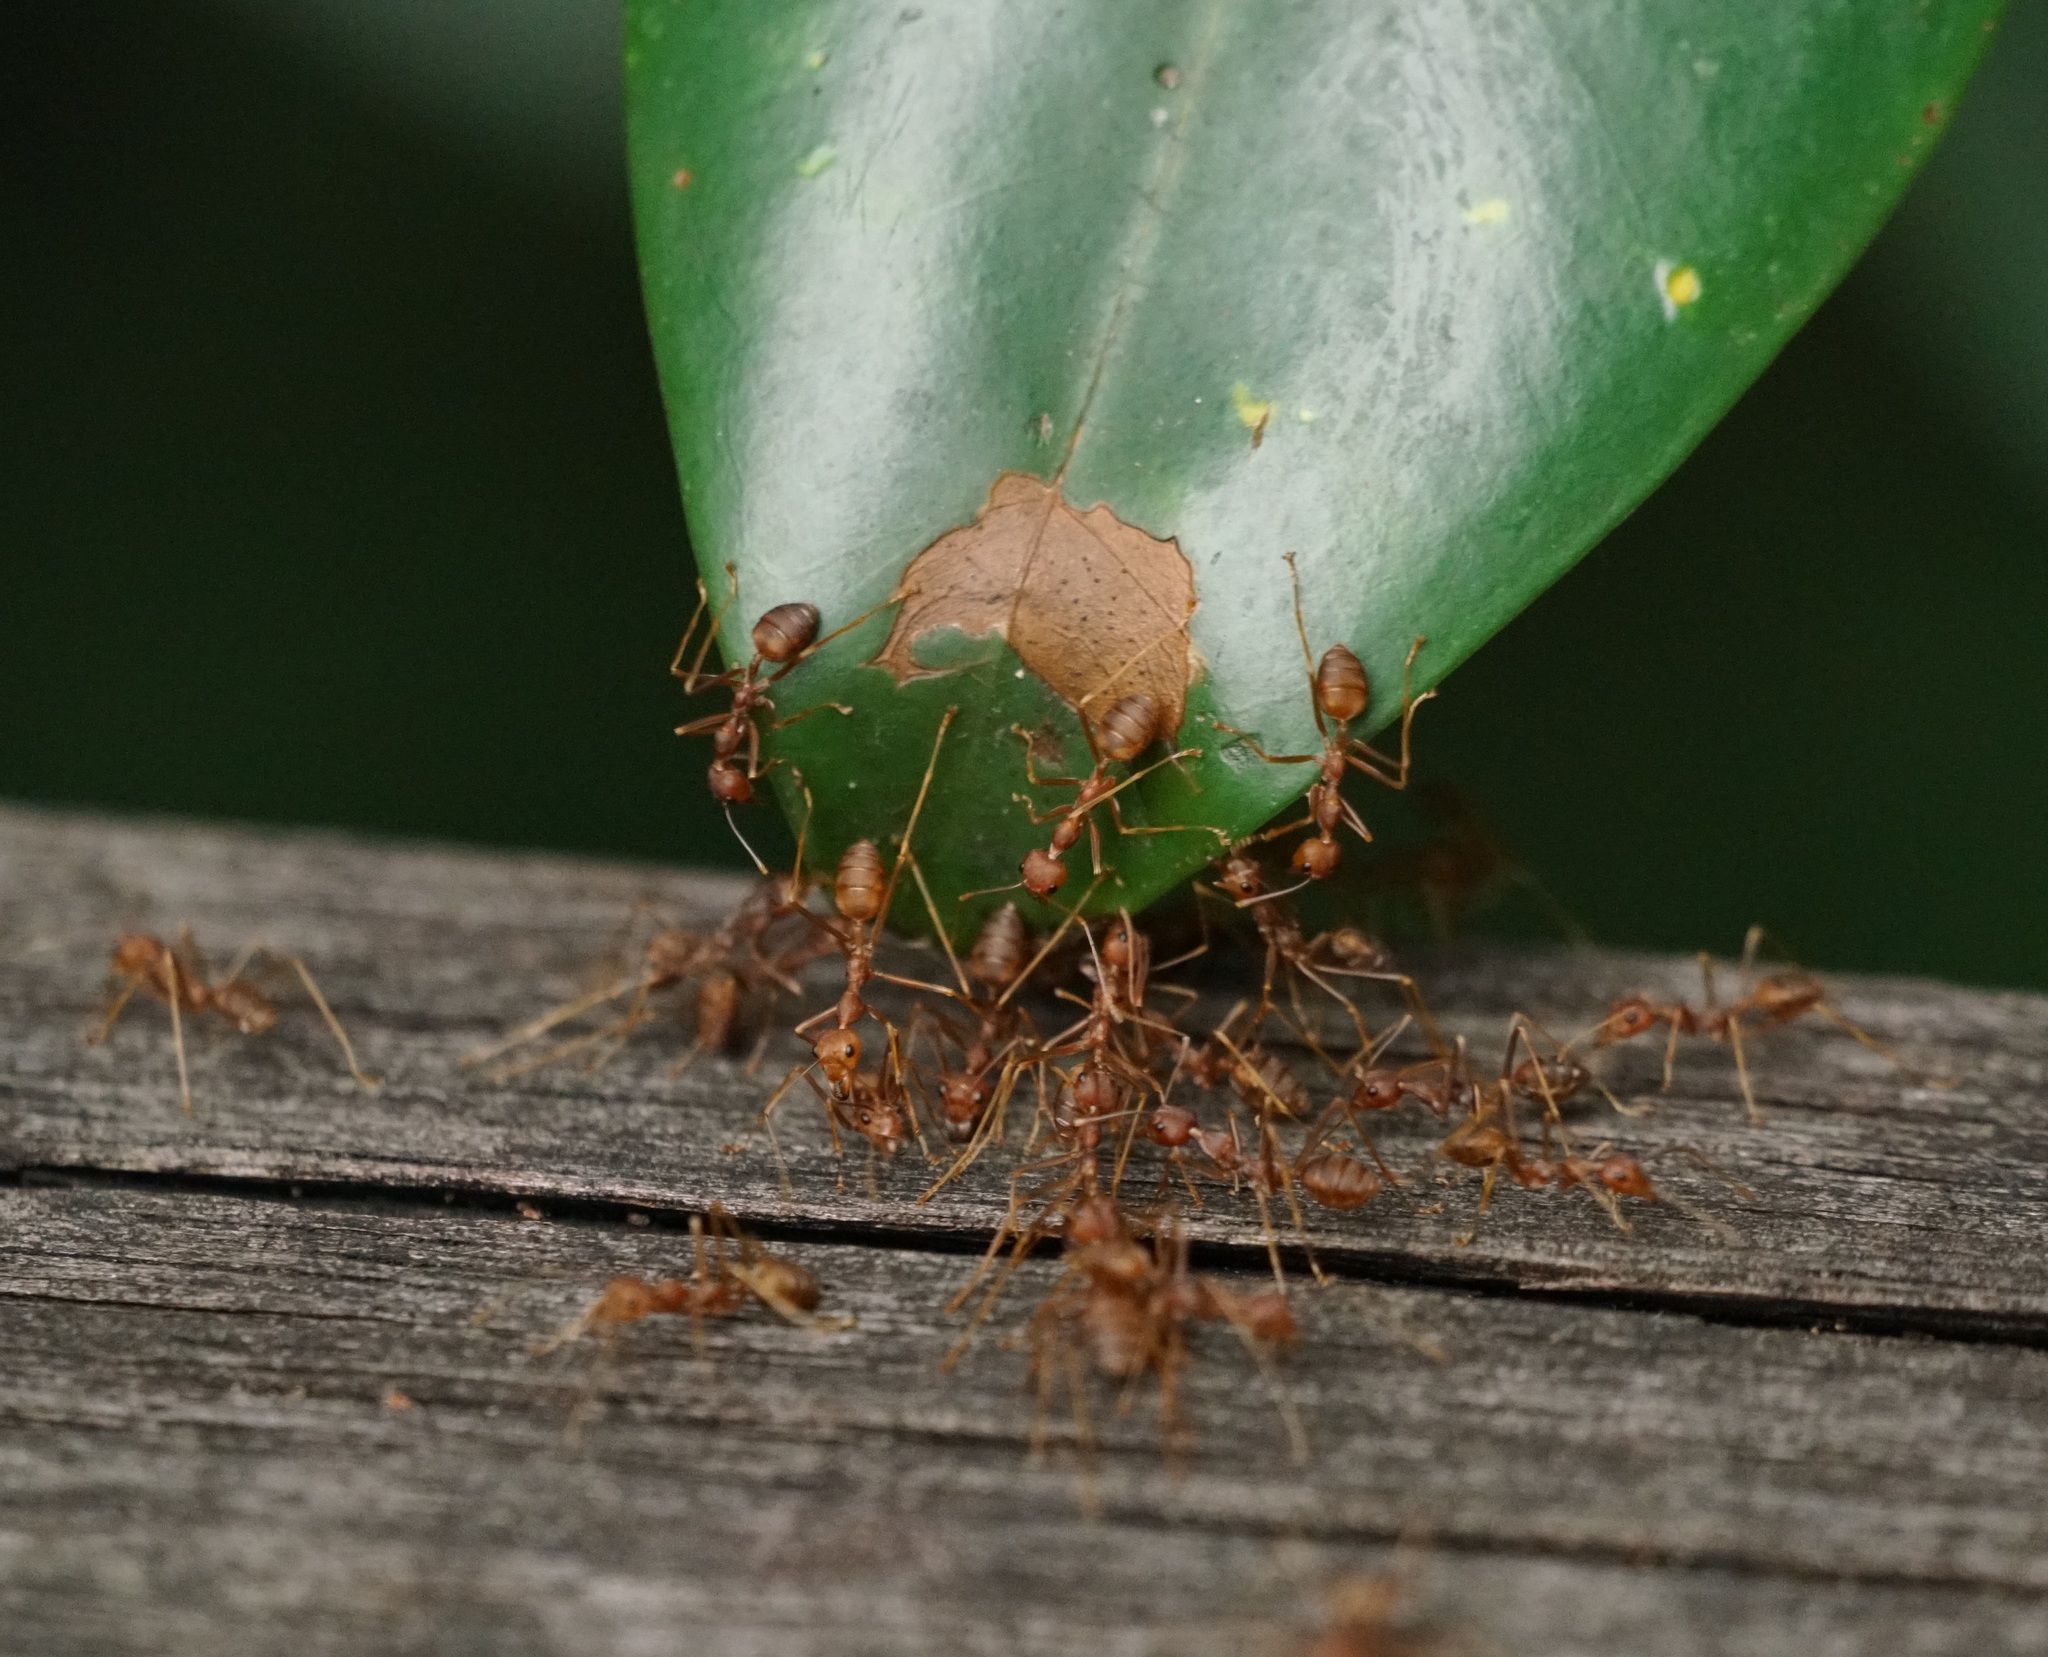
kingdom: Animalia
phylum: Arthropoda
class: Insecta
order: Hymenoptera
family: Formicidae
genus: Oecophylla
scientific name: Oecophylla smaragdina
